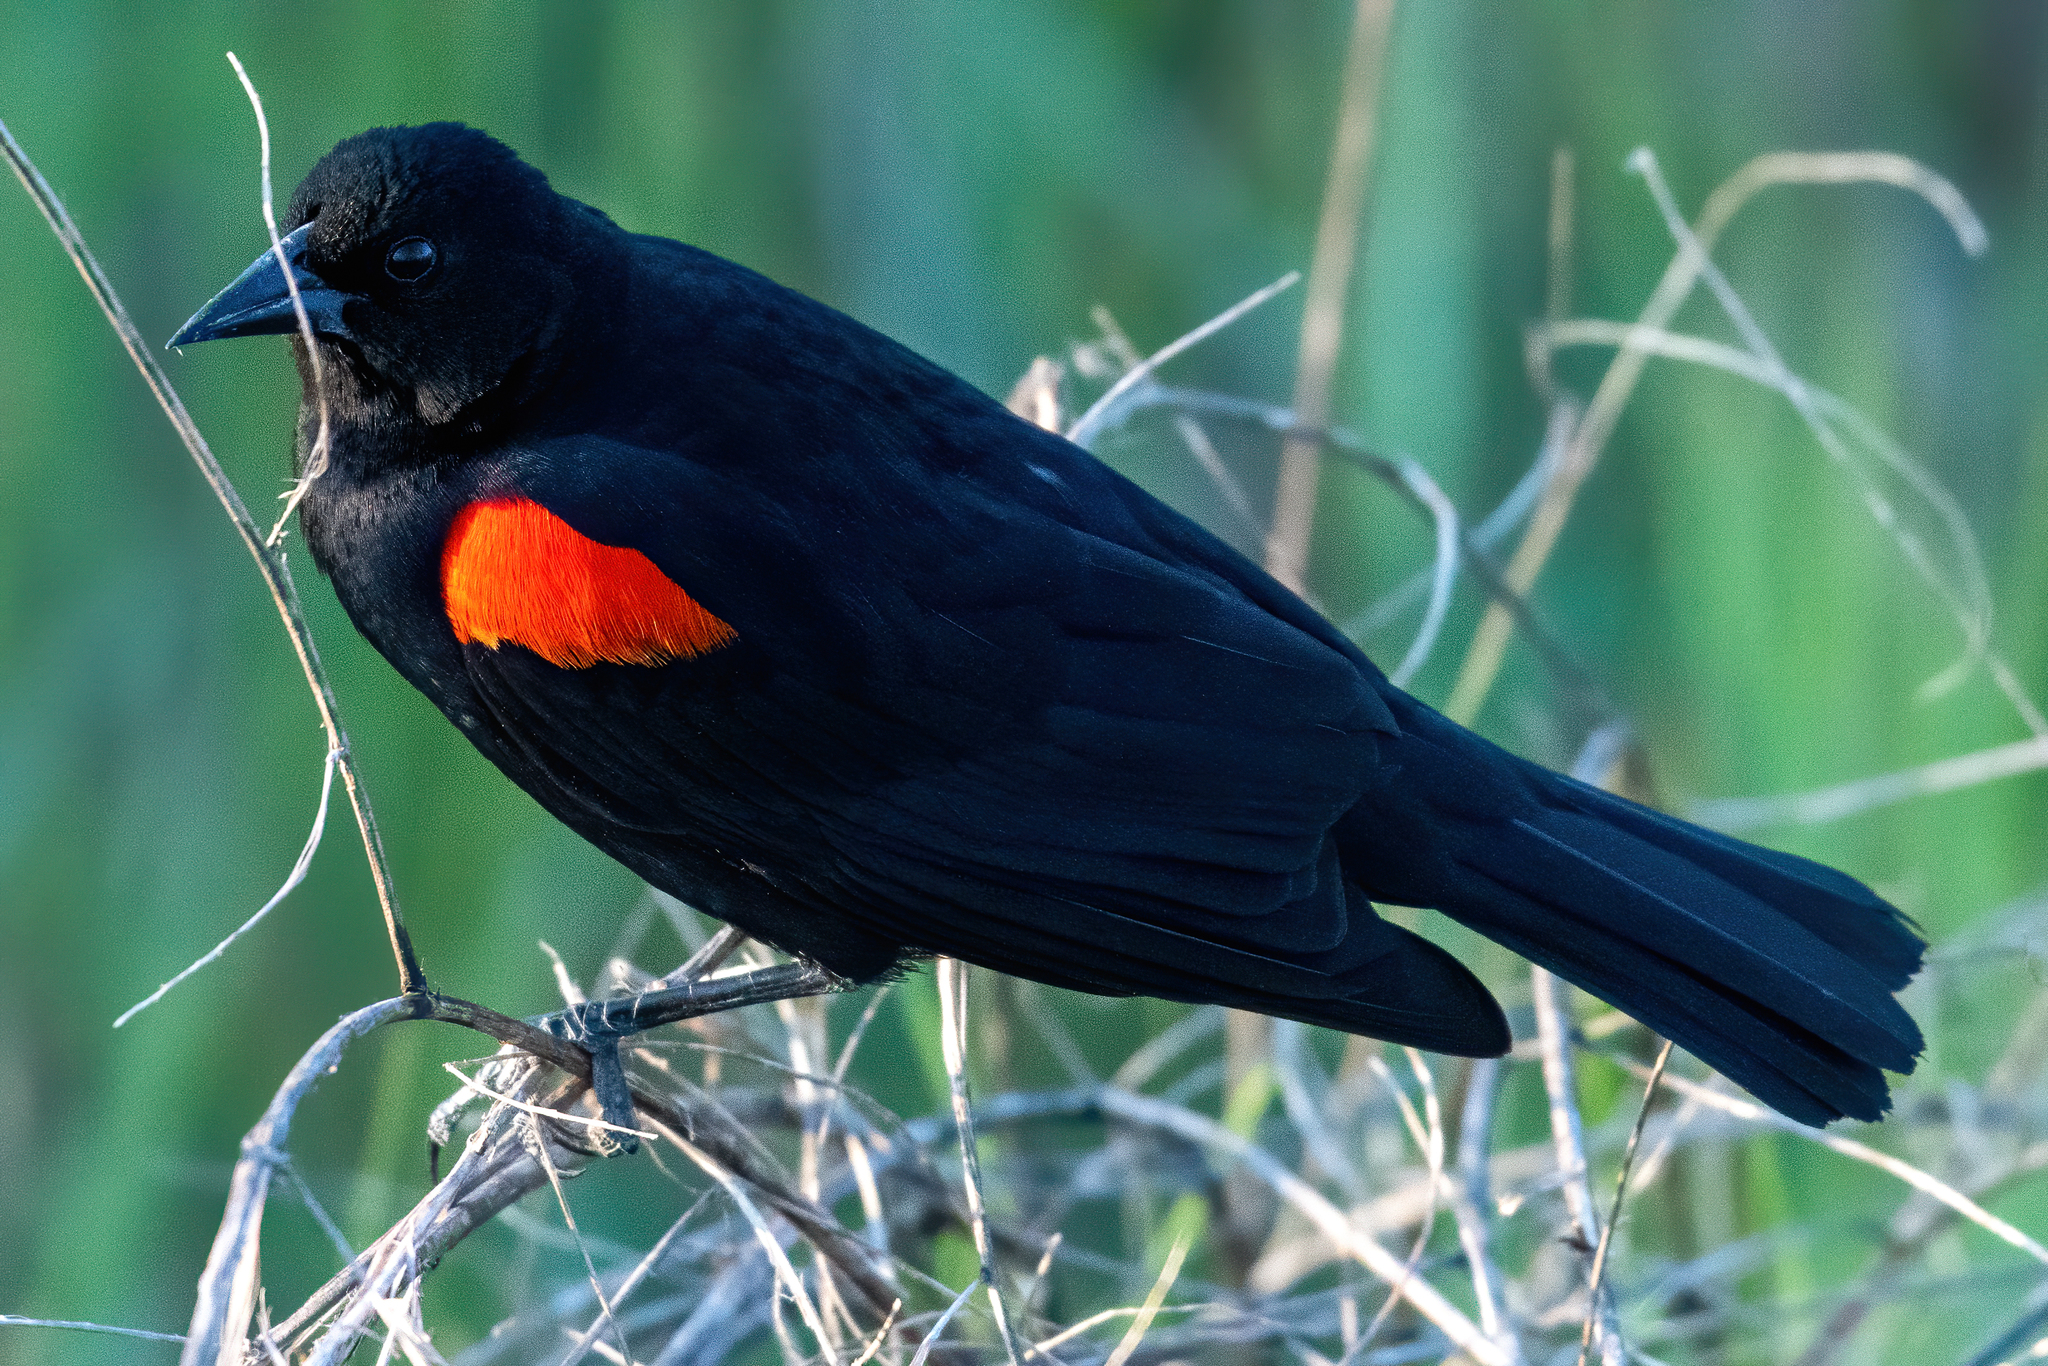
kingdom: Animalia
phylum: Chordata
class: Aves
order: Passeriformes
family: Icteridae
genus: Agelaius
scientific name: Agelaius phoeniceus
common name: Red-winged blackbird
